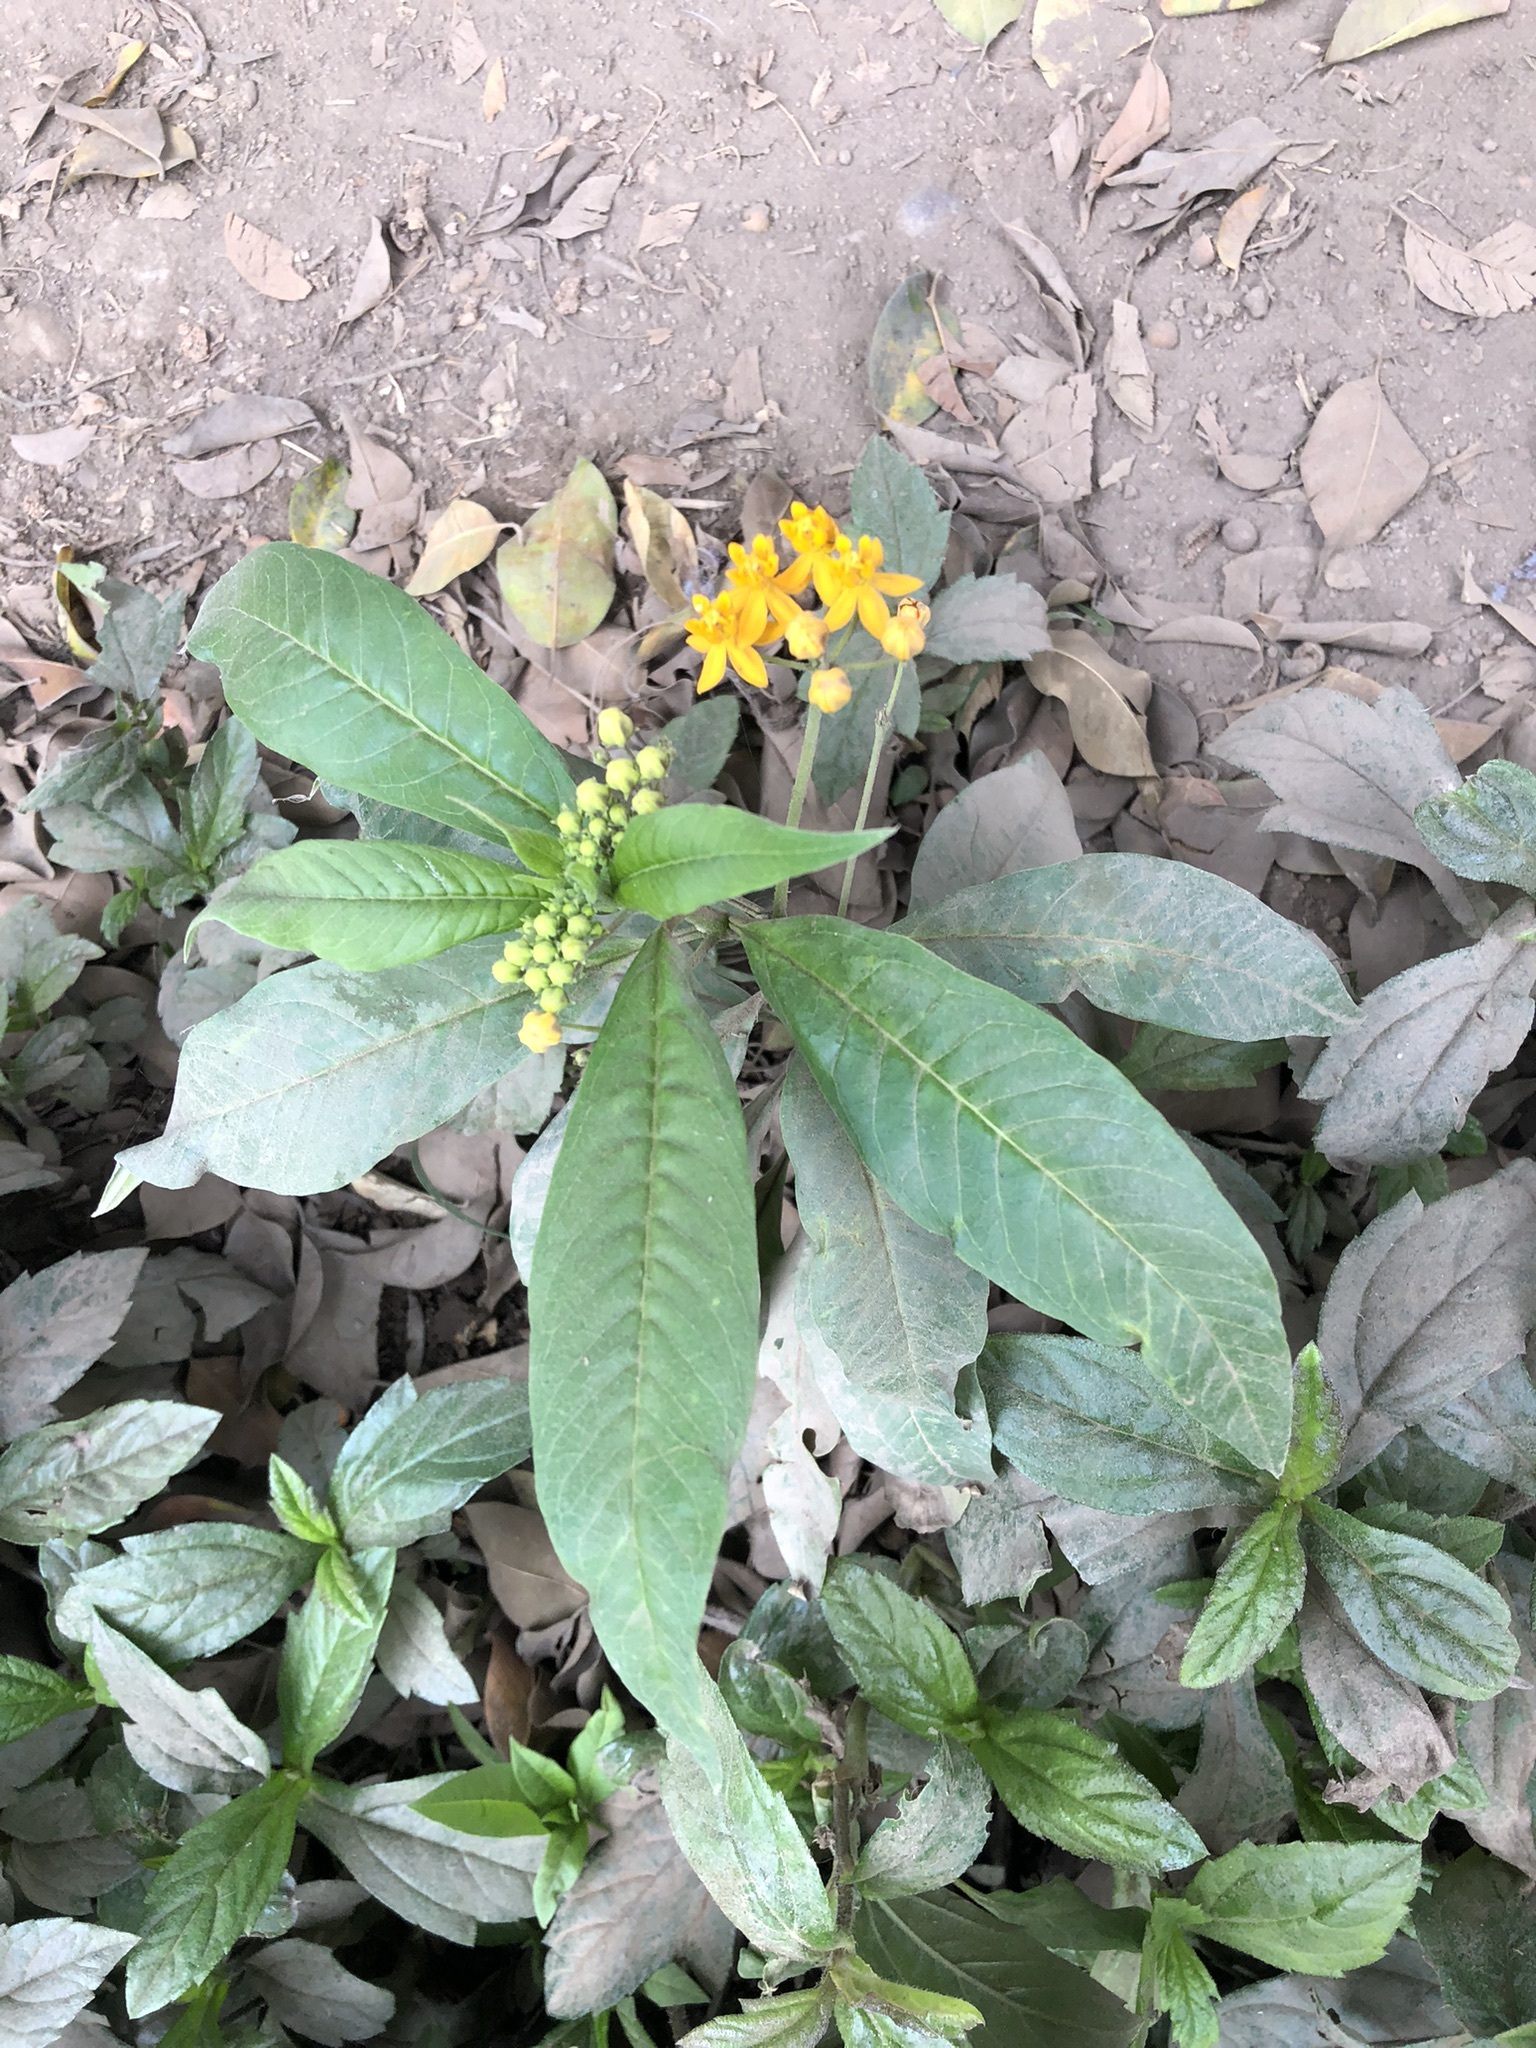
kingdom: Plantae
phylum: Tracheophyta
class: Magnoliopsida
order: Gentianales
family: Apocynaceae
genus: Asclepias
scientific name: Asclepias curassavica
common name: Bloodflower
